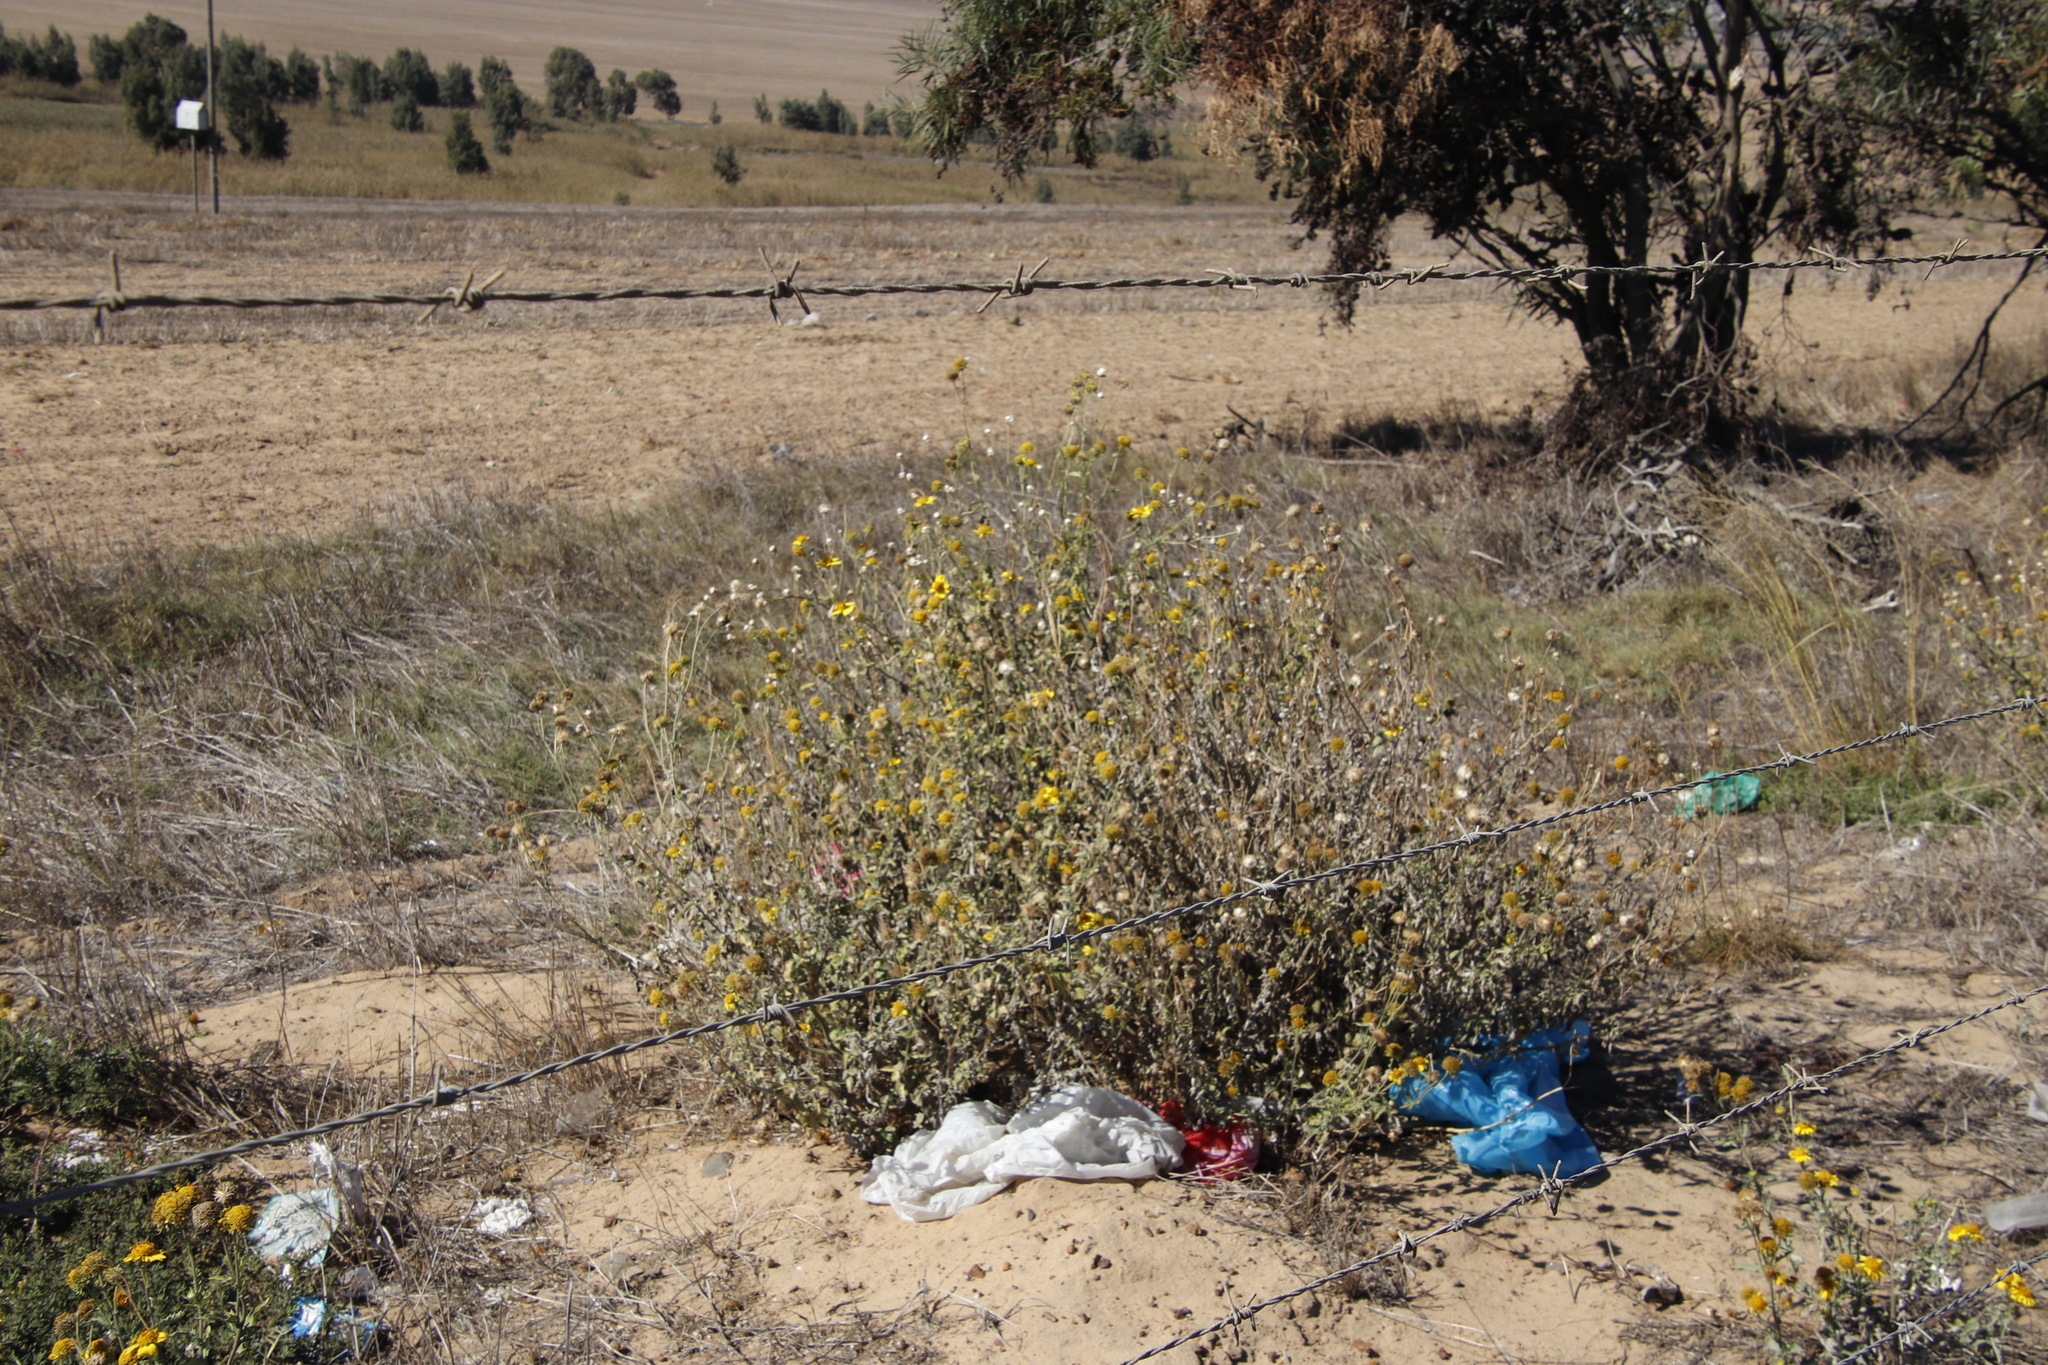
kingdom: Plantae
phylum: Tracheophyta
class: Magnoliopsida
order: Asterales
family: Asteraceae
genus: Verbesina
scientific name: Verbesina encelioides
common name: Golden crownbeard
